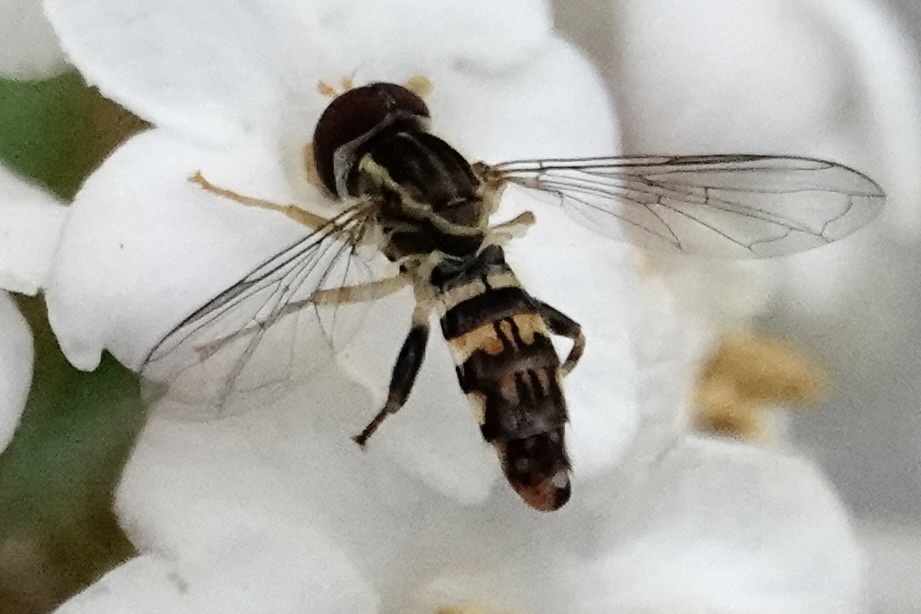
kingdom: Animalia
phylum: Arthropoda
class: Insecta
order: Diptera
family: Syrphidae
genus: Toxomerus
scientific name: Toxomerus geminatus
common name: Eastern calligrapher
